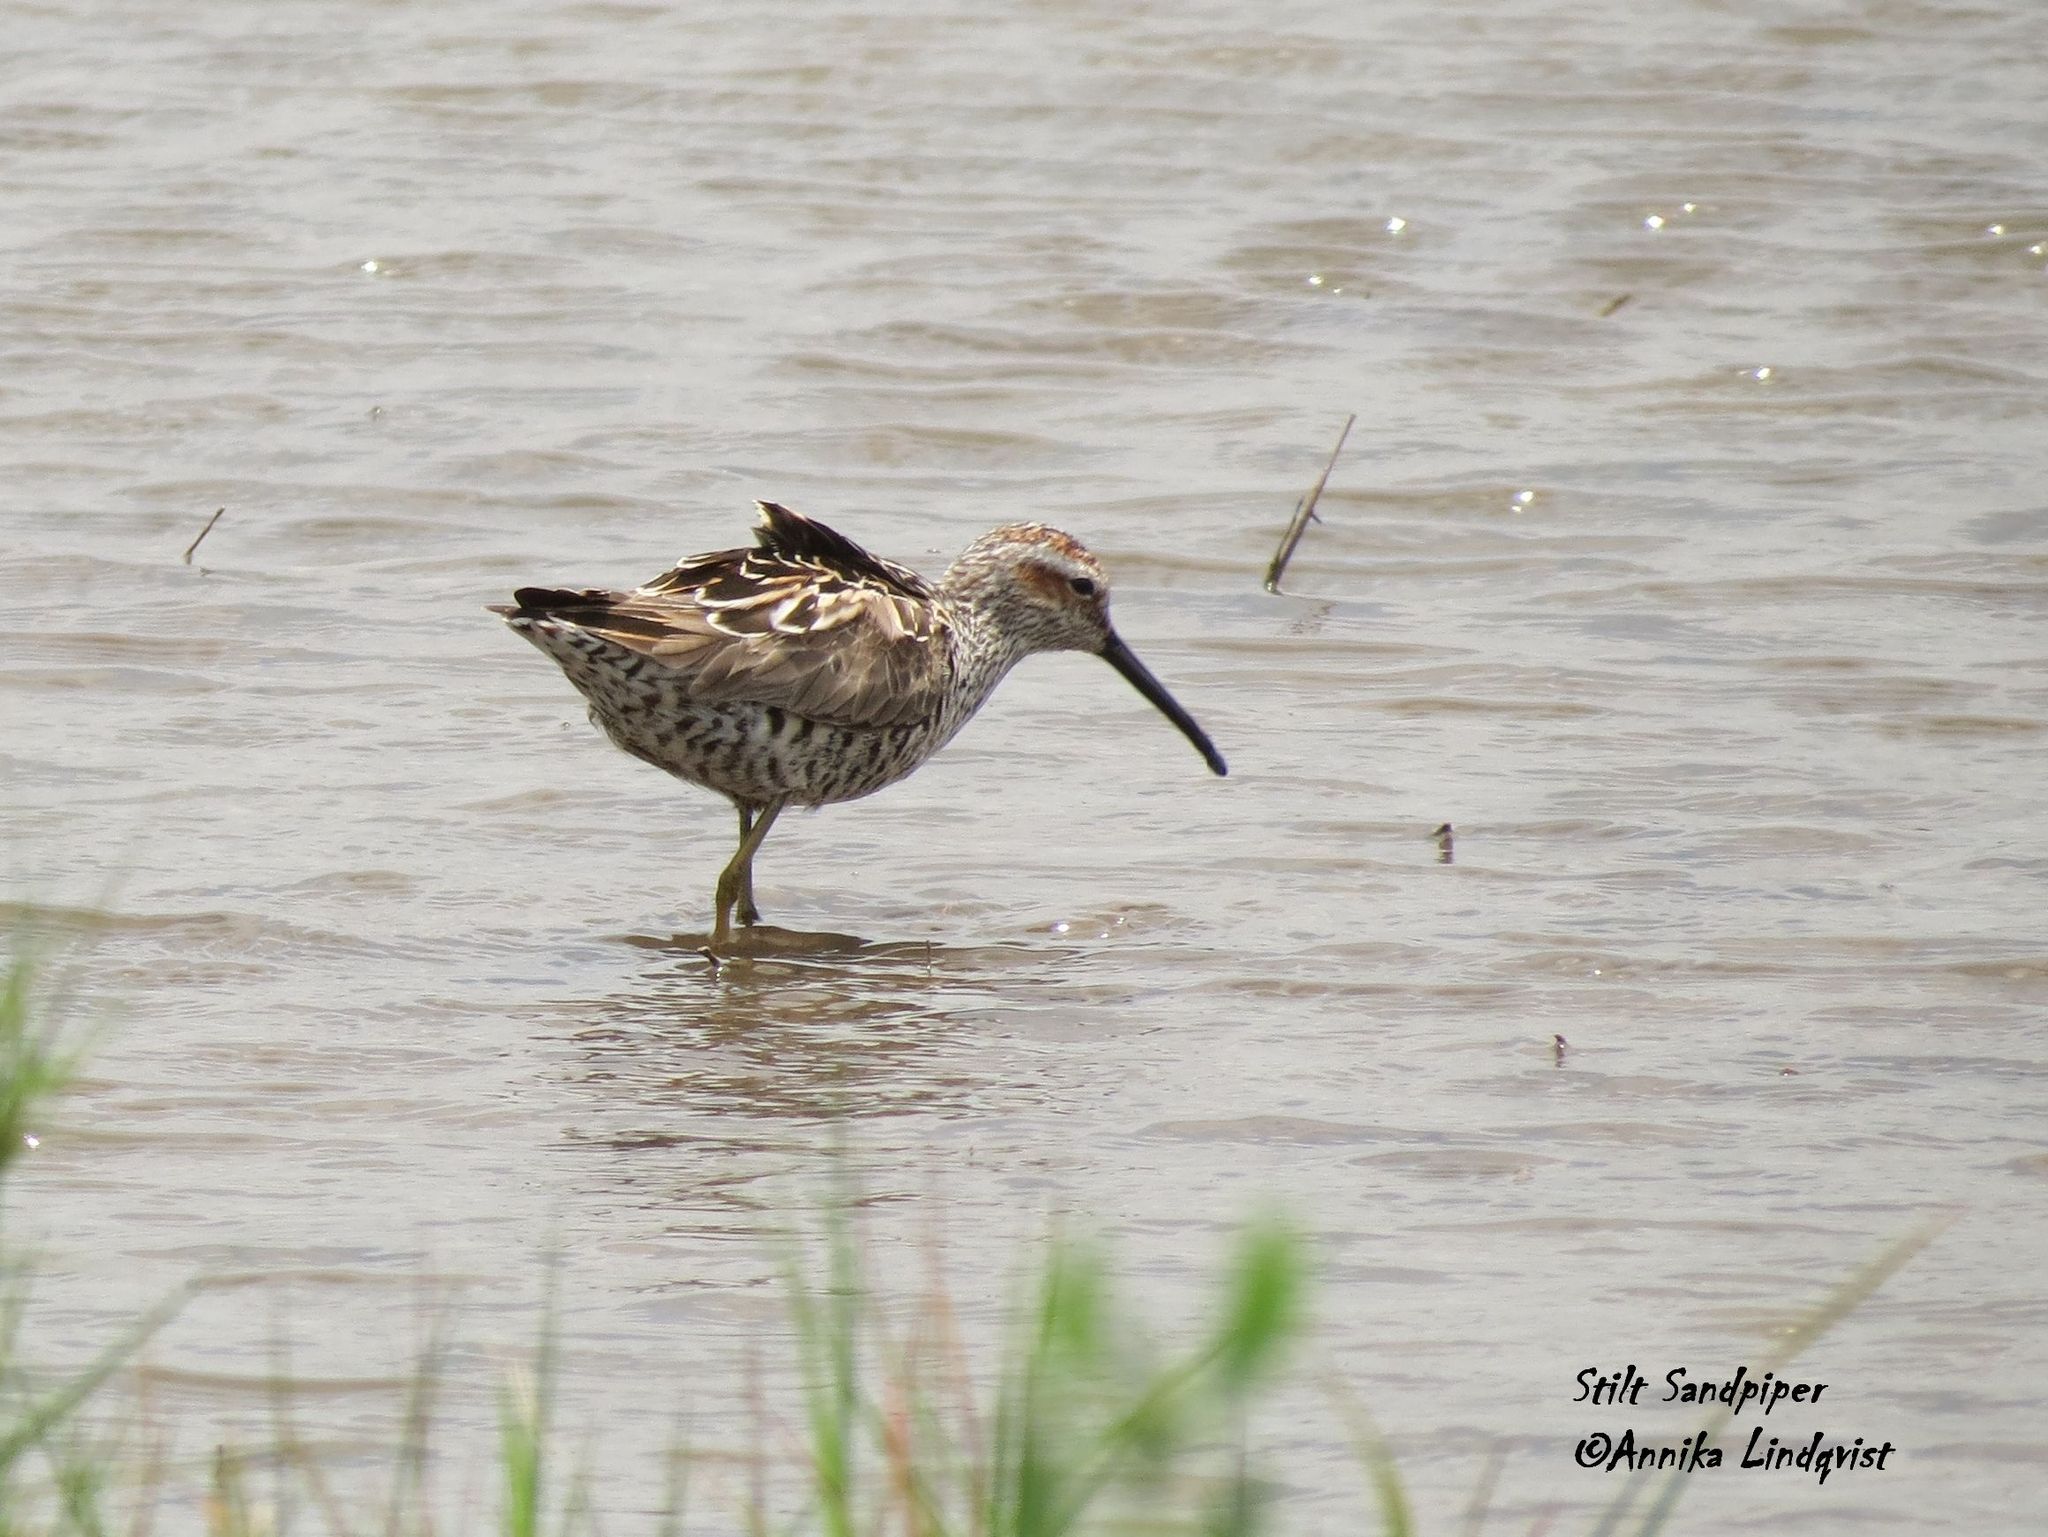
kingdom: Animalia
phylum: Chordata
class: Aves
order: Charadriiformes
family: Scolopacidae
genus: Calidris
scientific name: Calidris himantopus
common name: Stilt sandpiper
